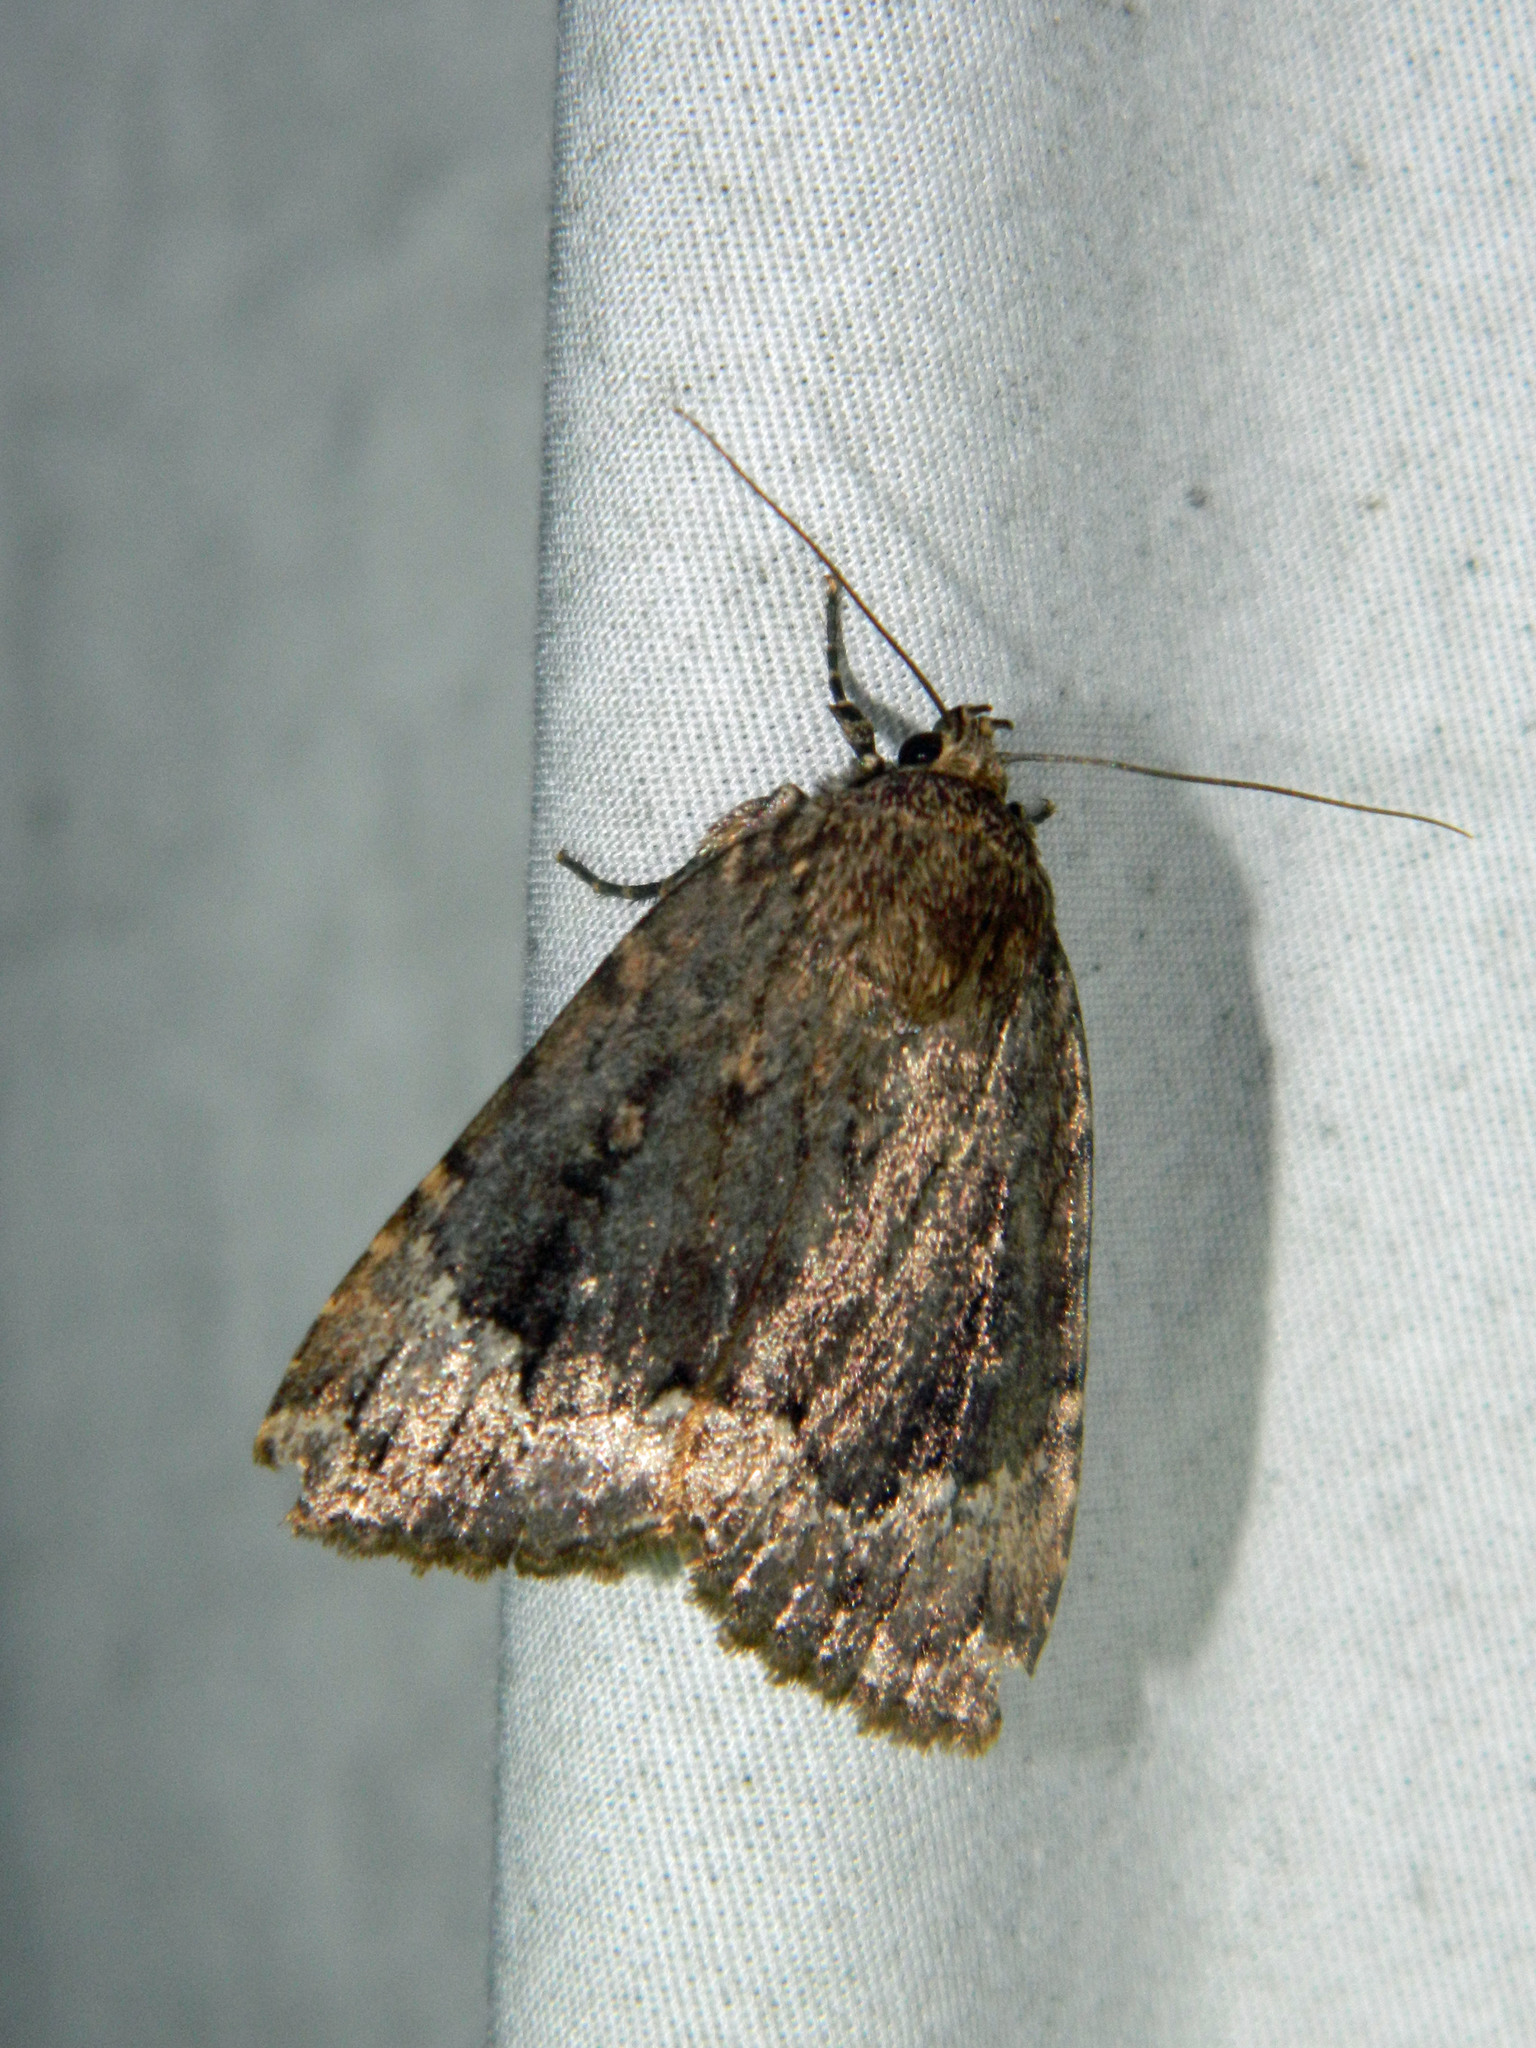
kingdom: Animalia
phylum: Arthropoda
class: Insecta
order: Lepidoptera
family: Noctuidae
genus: Amphipyra
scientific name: Amphipyra pyramidoides
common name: American copper underwing
